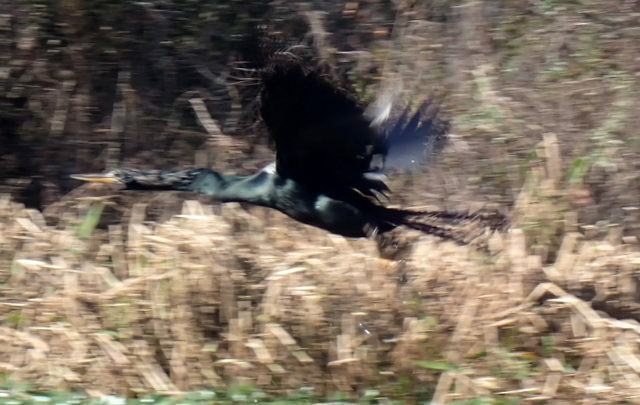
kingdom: Animalia
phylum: Chordata
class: Aves
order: Suliformes
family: Anhingidae
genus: Anhinga
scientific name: Anhinga anhinga
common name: Anhinga
